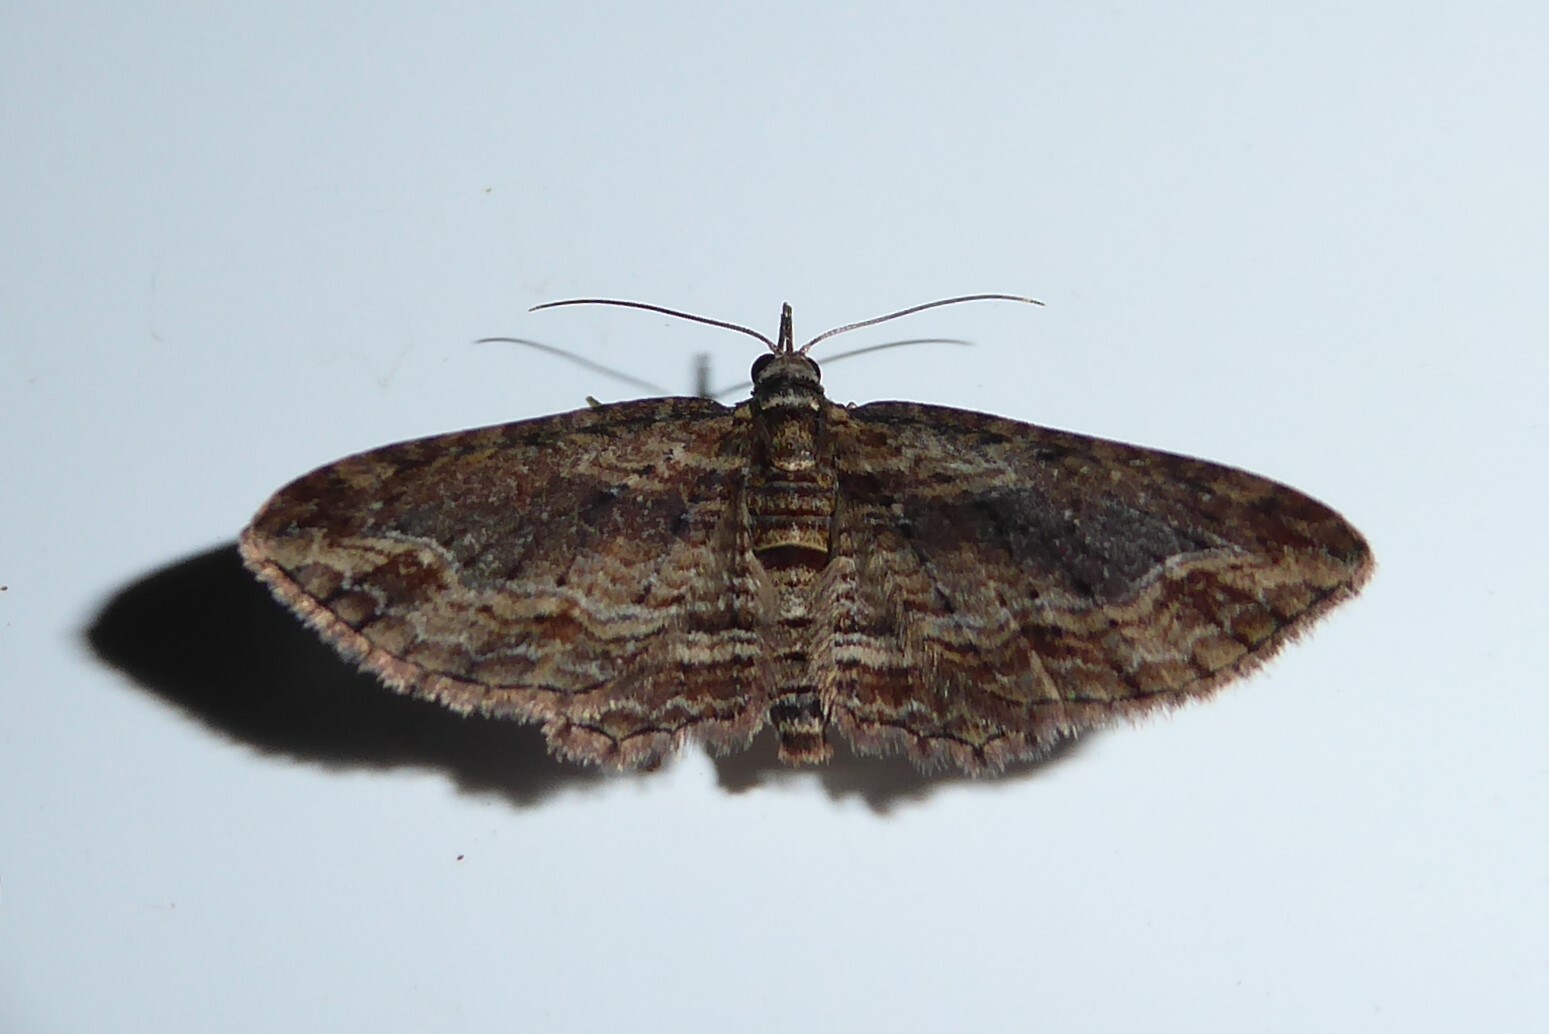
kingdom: Animalia
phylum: Arthropoda
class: Insecta
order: Lepidoptera
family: Geometridae
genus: Chloroclystis
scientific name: Chloroclystis filata
